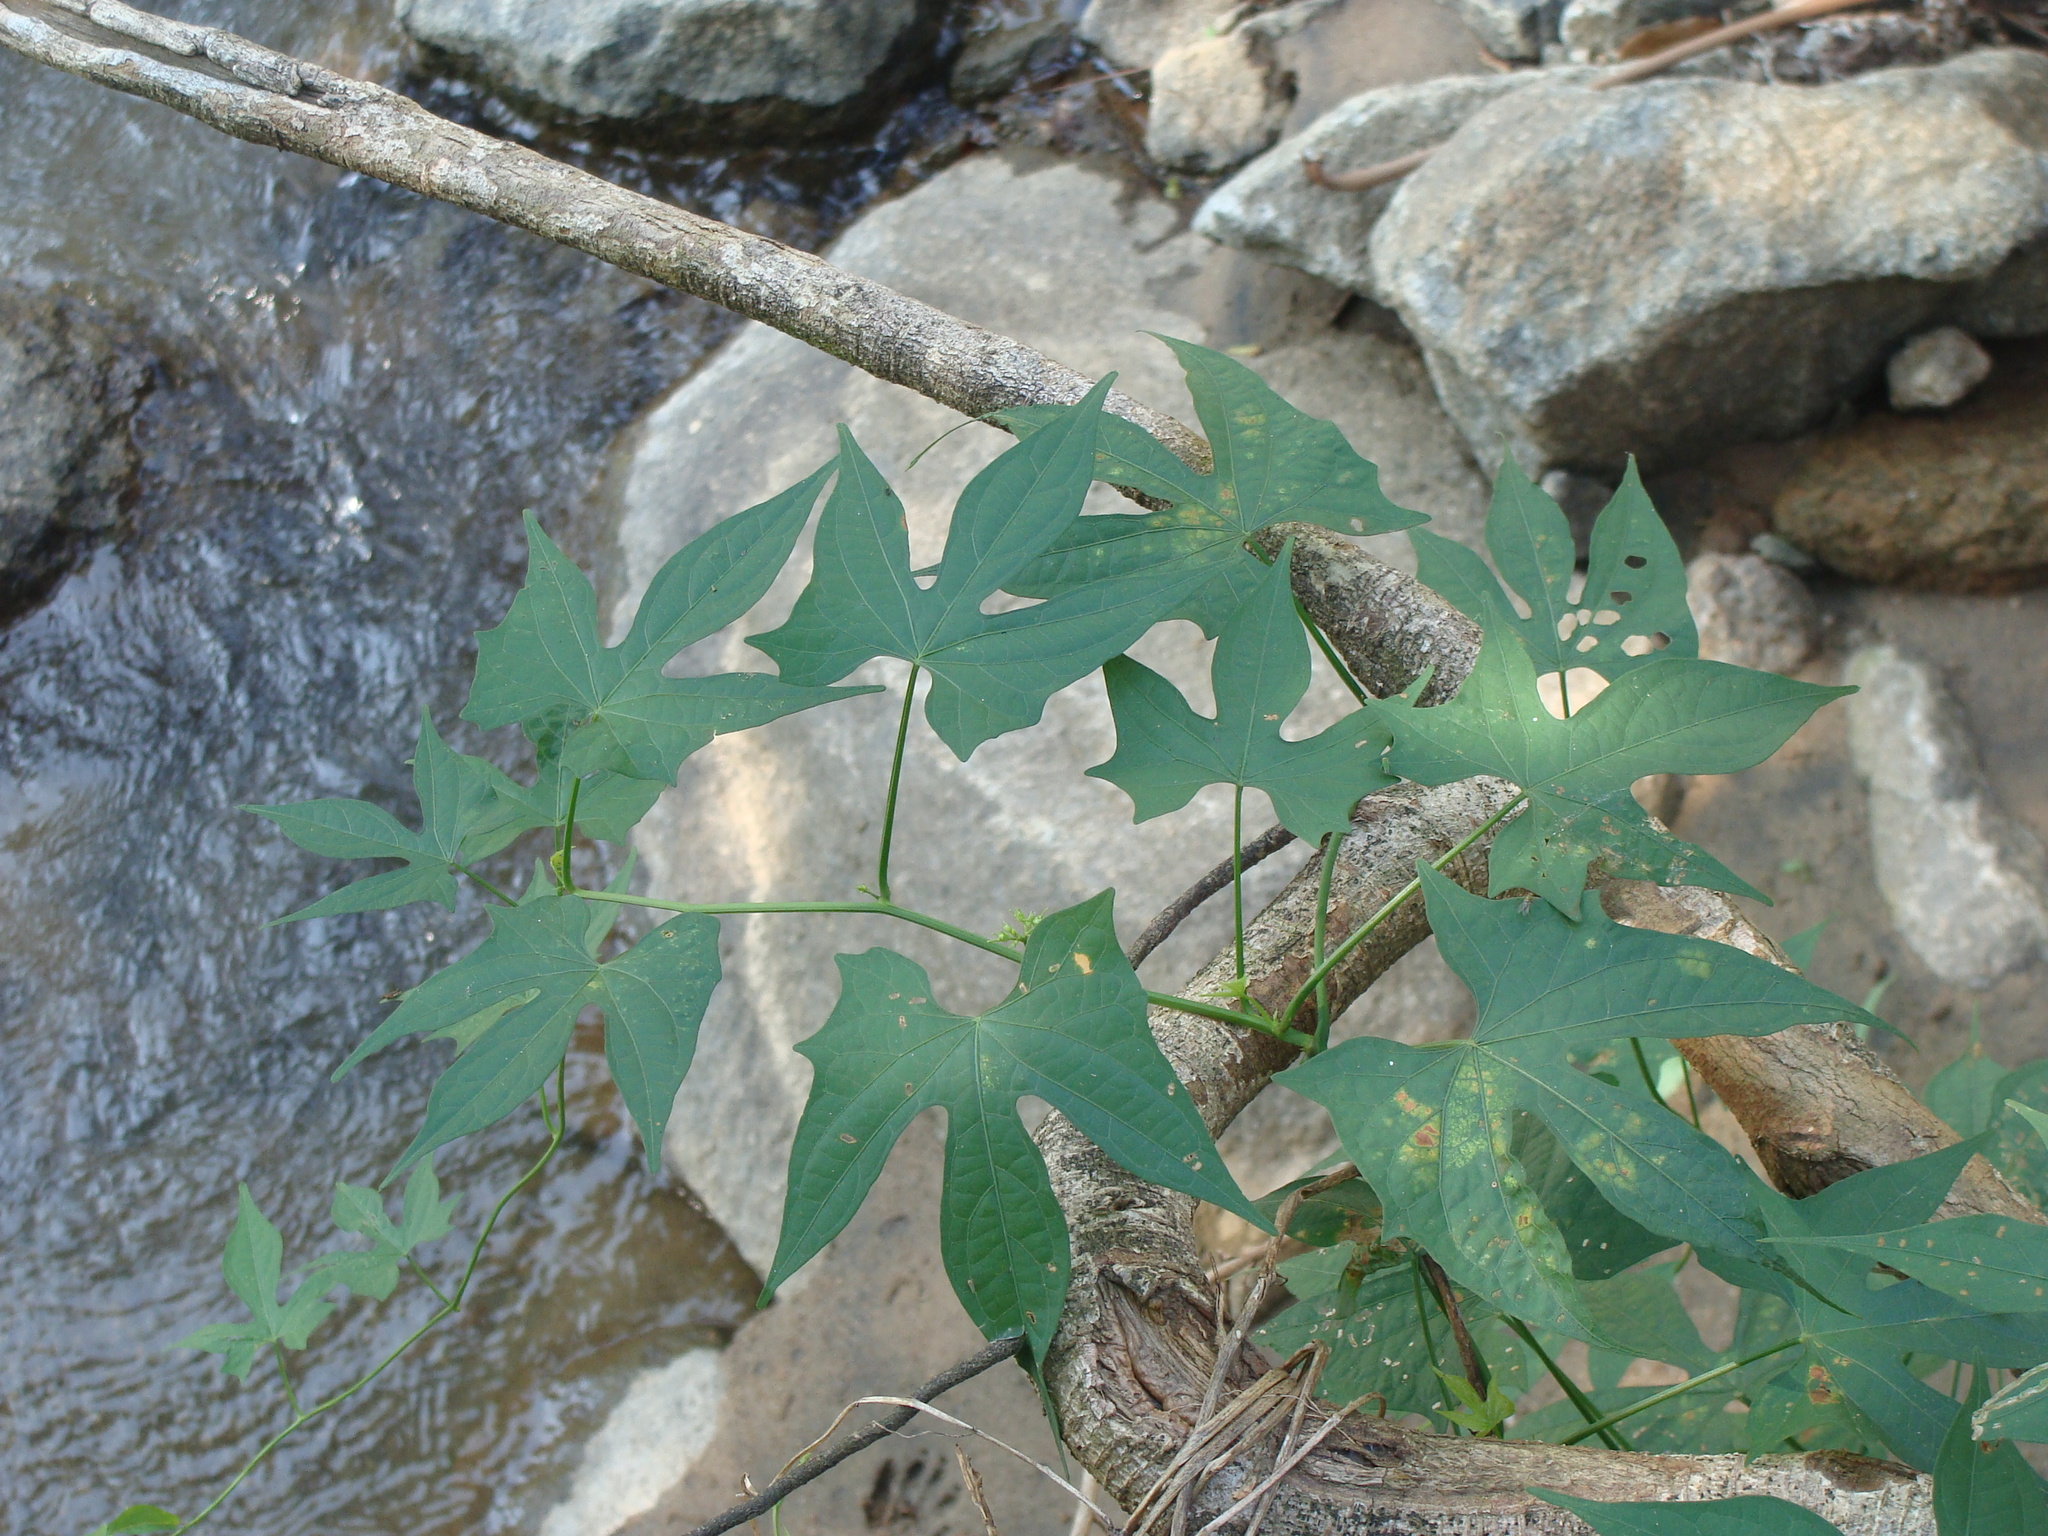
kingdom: Plantae
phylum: Tracheophyta
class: Magnoliopsida
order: Solanales
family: Convolvulaceae
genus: Ipomoea
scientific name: Ipomoea neei
